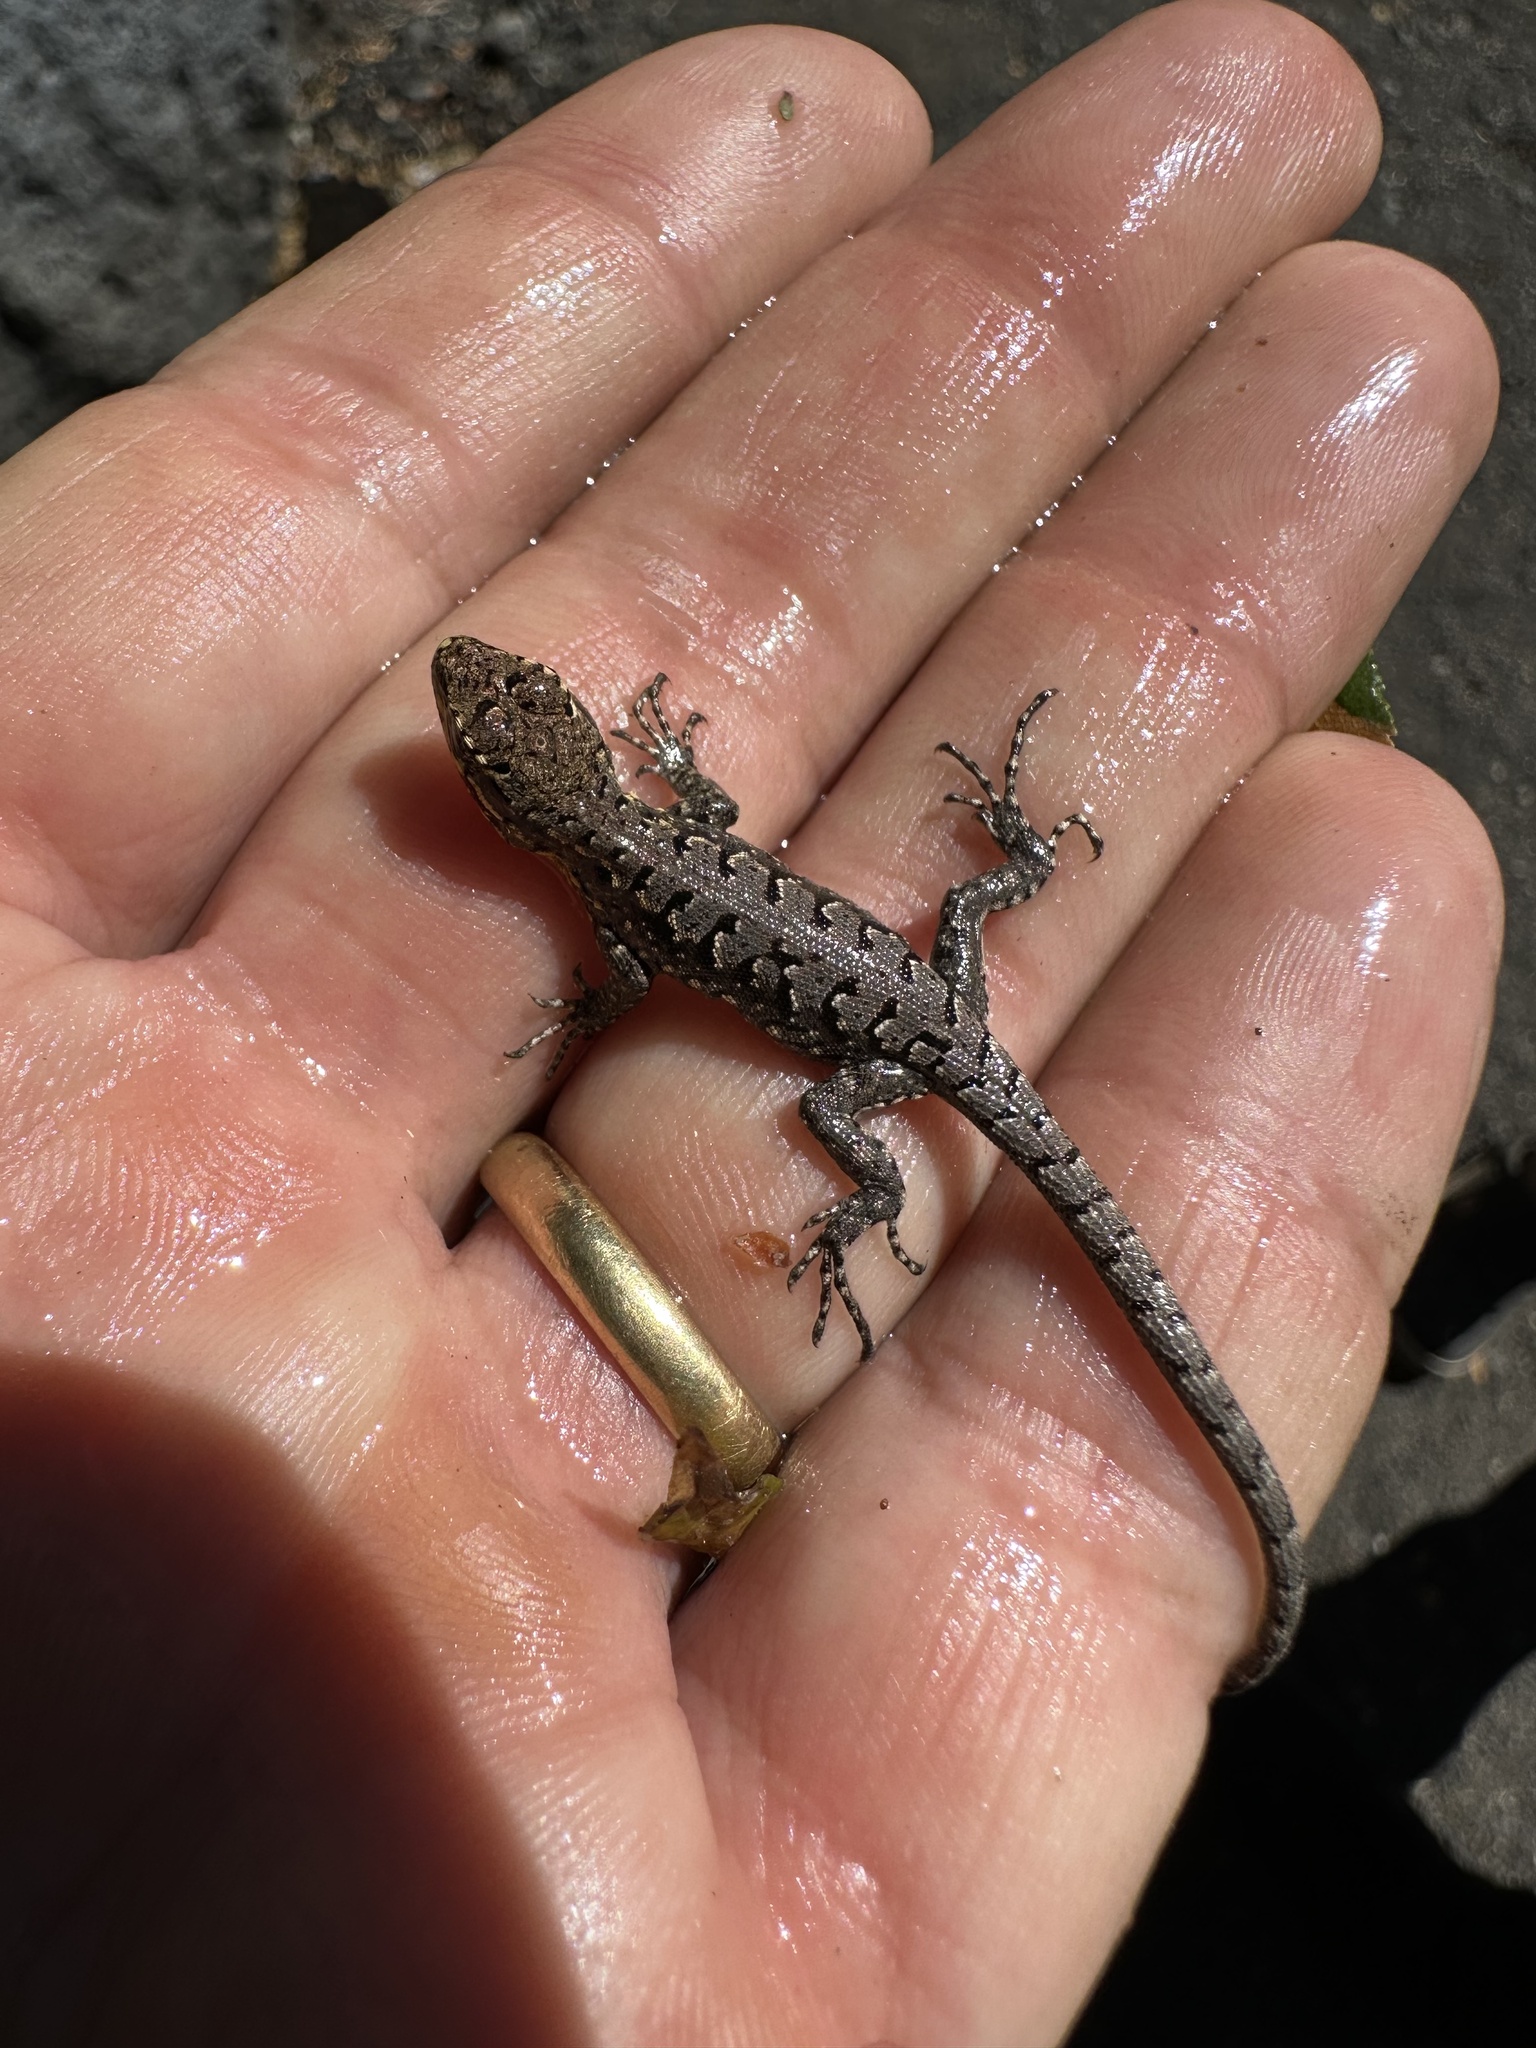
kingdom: Animalia
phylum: Chordata
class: Squamata
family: Liolaemidae
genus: Liolaemus
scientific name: Liolaemus tenuis
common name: Thin tree iguana
